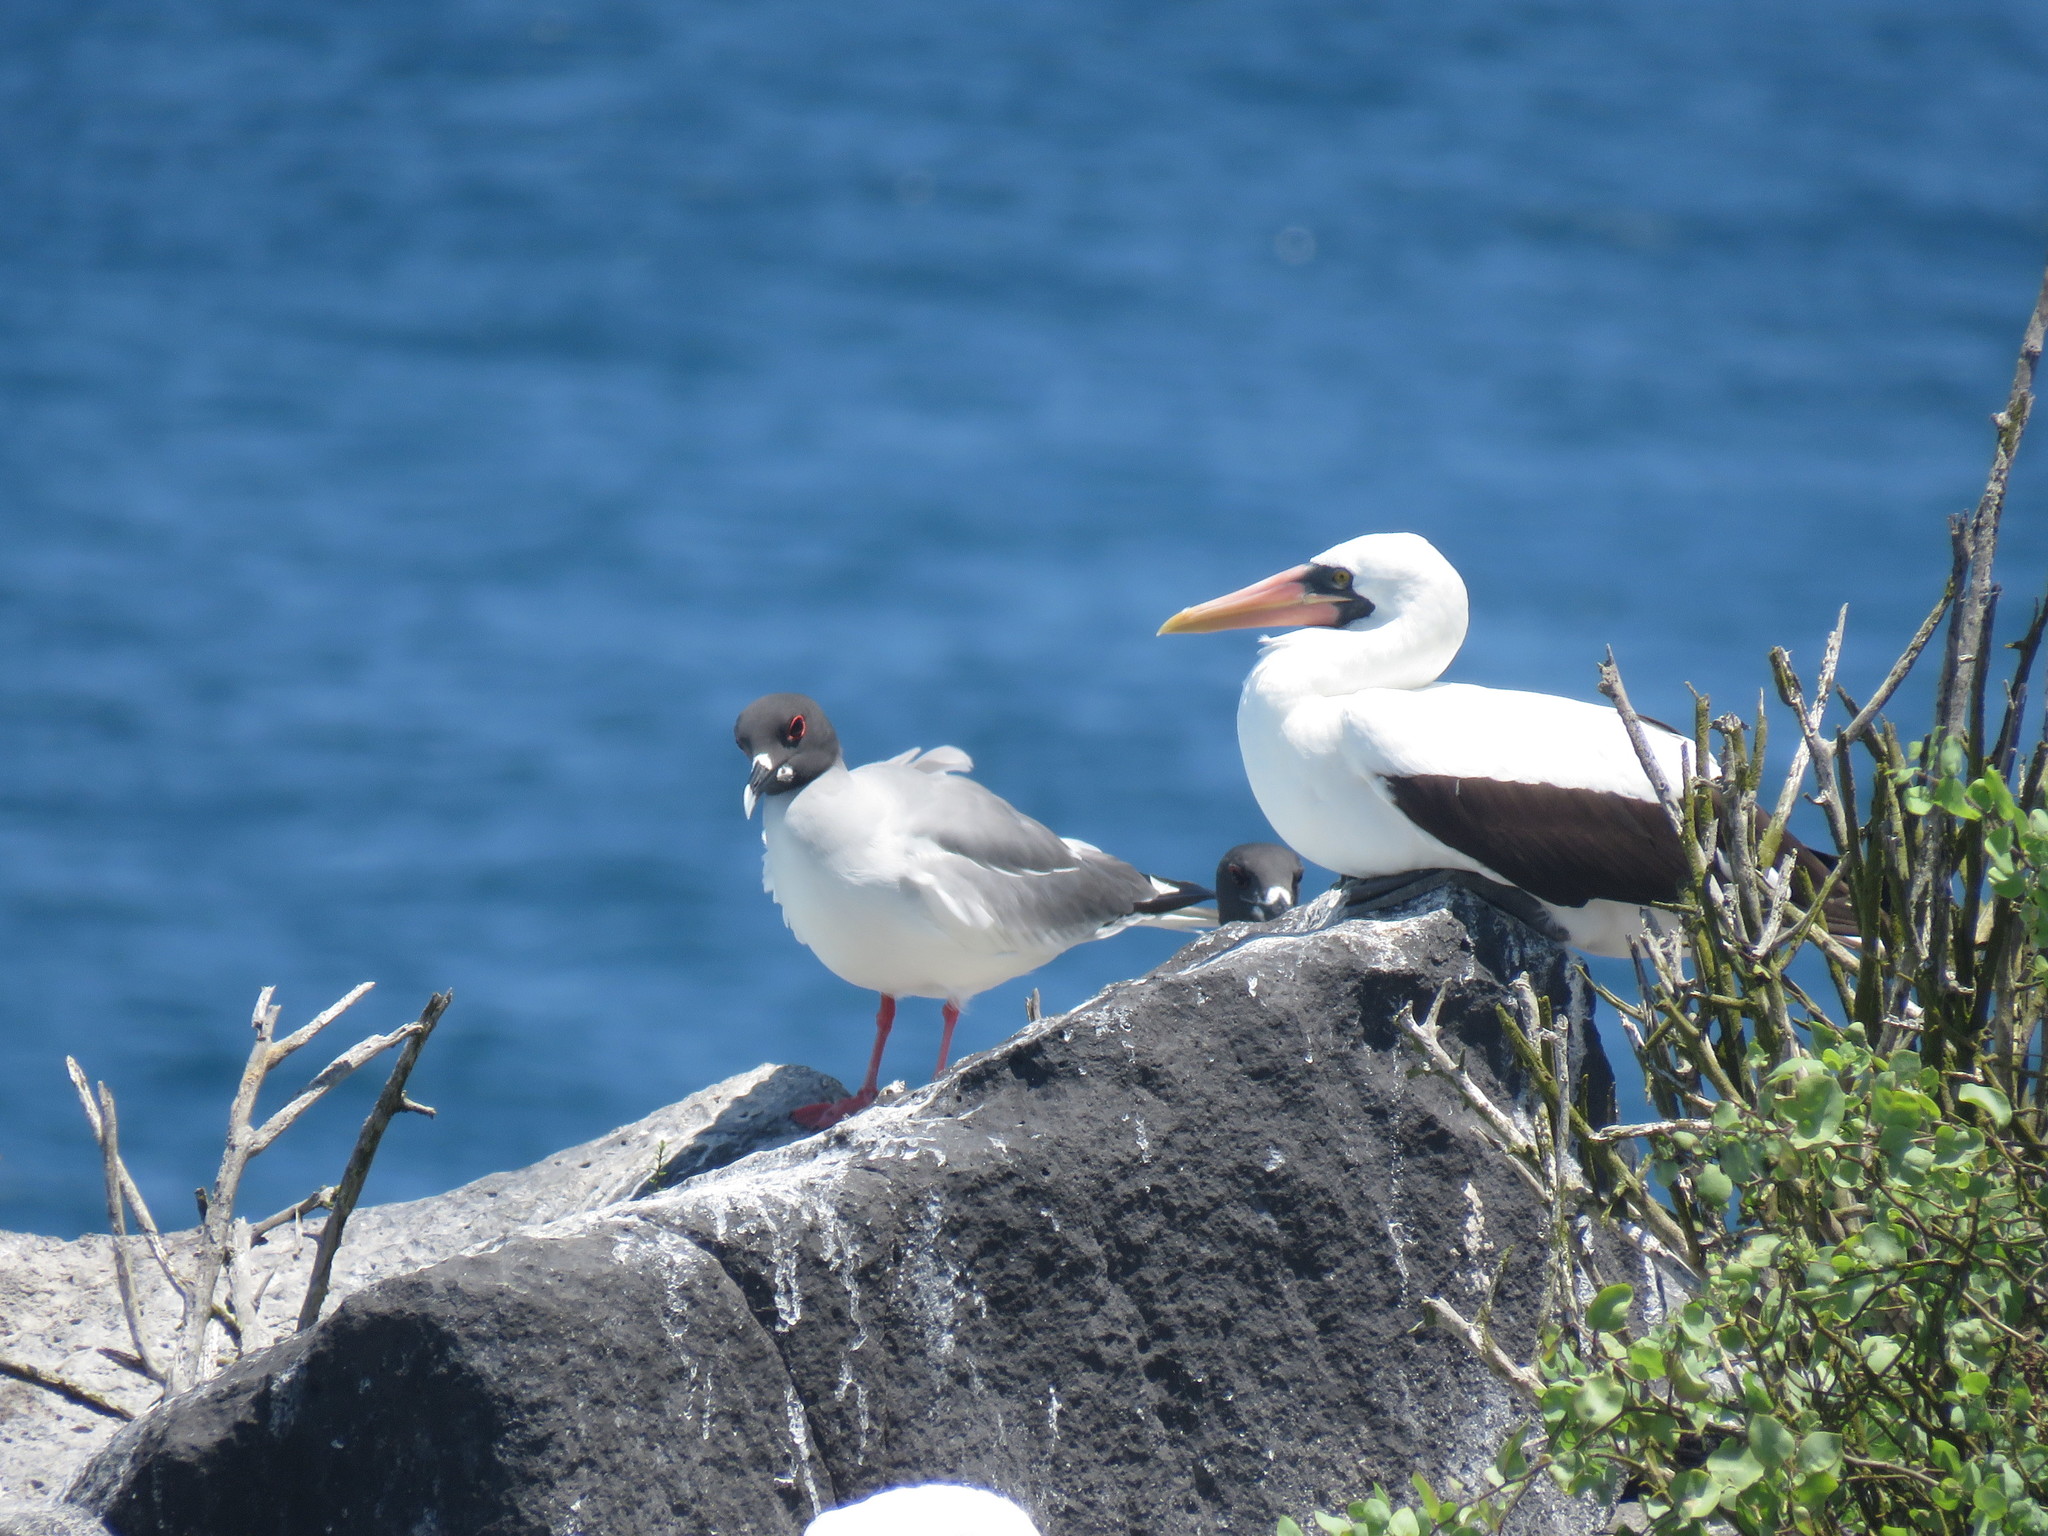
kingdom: Animalia
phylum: Chordata
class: Aves
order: Charadriiformes
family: Laridae
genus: Creagrus
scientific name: Creagrus furcatus
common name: Swallow-tailed gull
